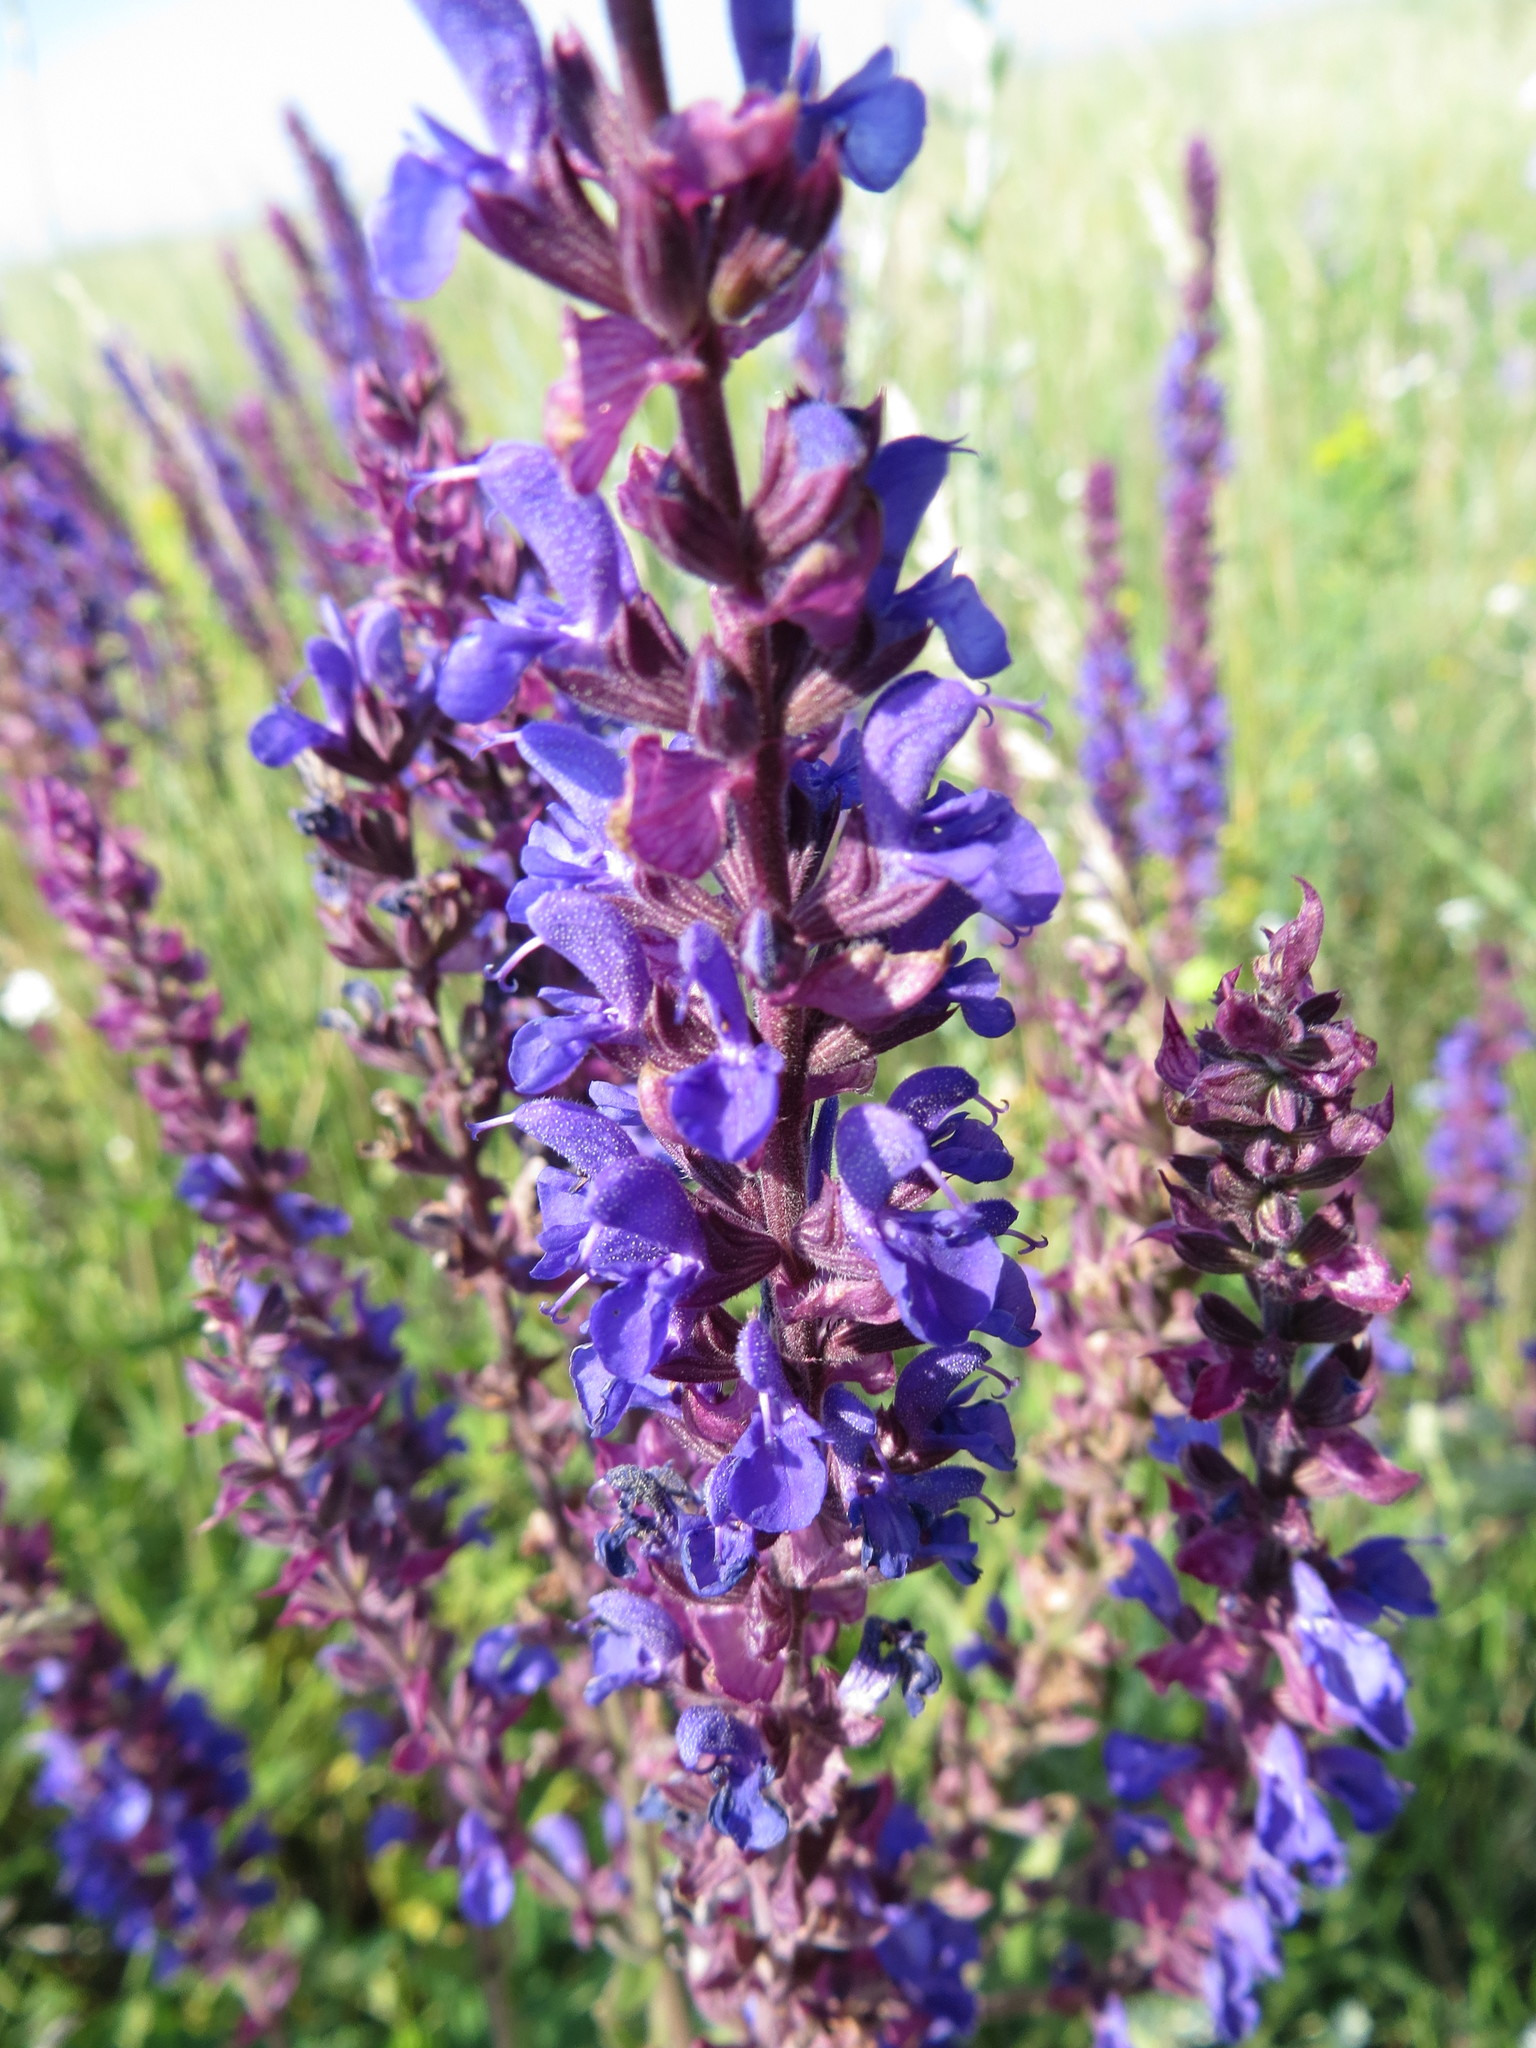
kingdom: Plantae
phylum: Tracheophyta
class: Magnoliopsida
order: Lamiales
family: Lamiaceae
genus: Salvia
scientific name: Salvia nemorosa
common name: Balkan clary
